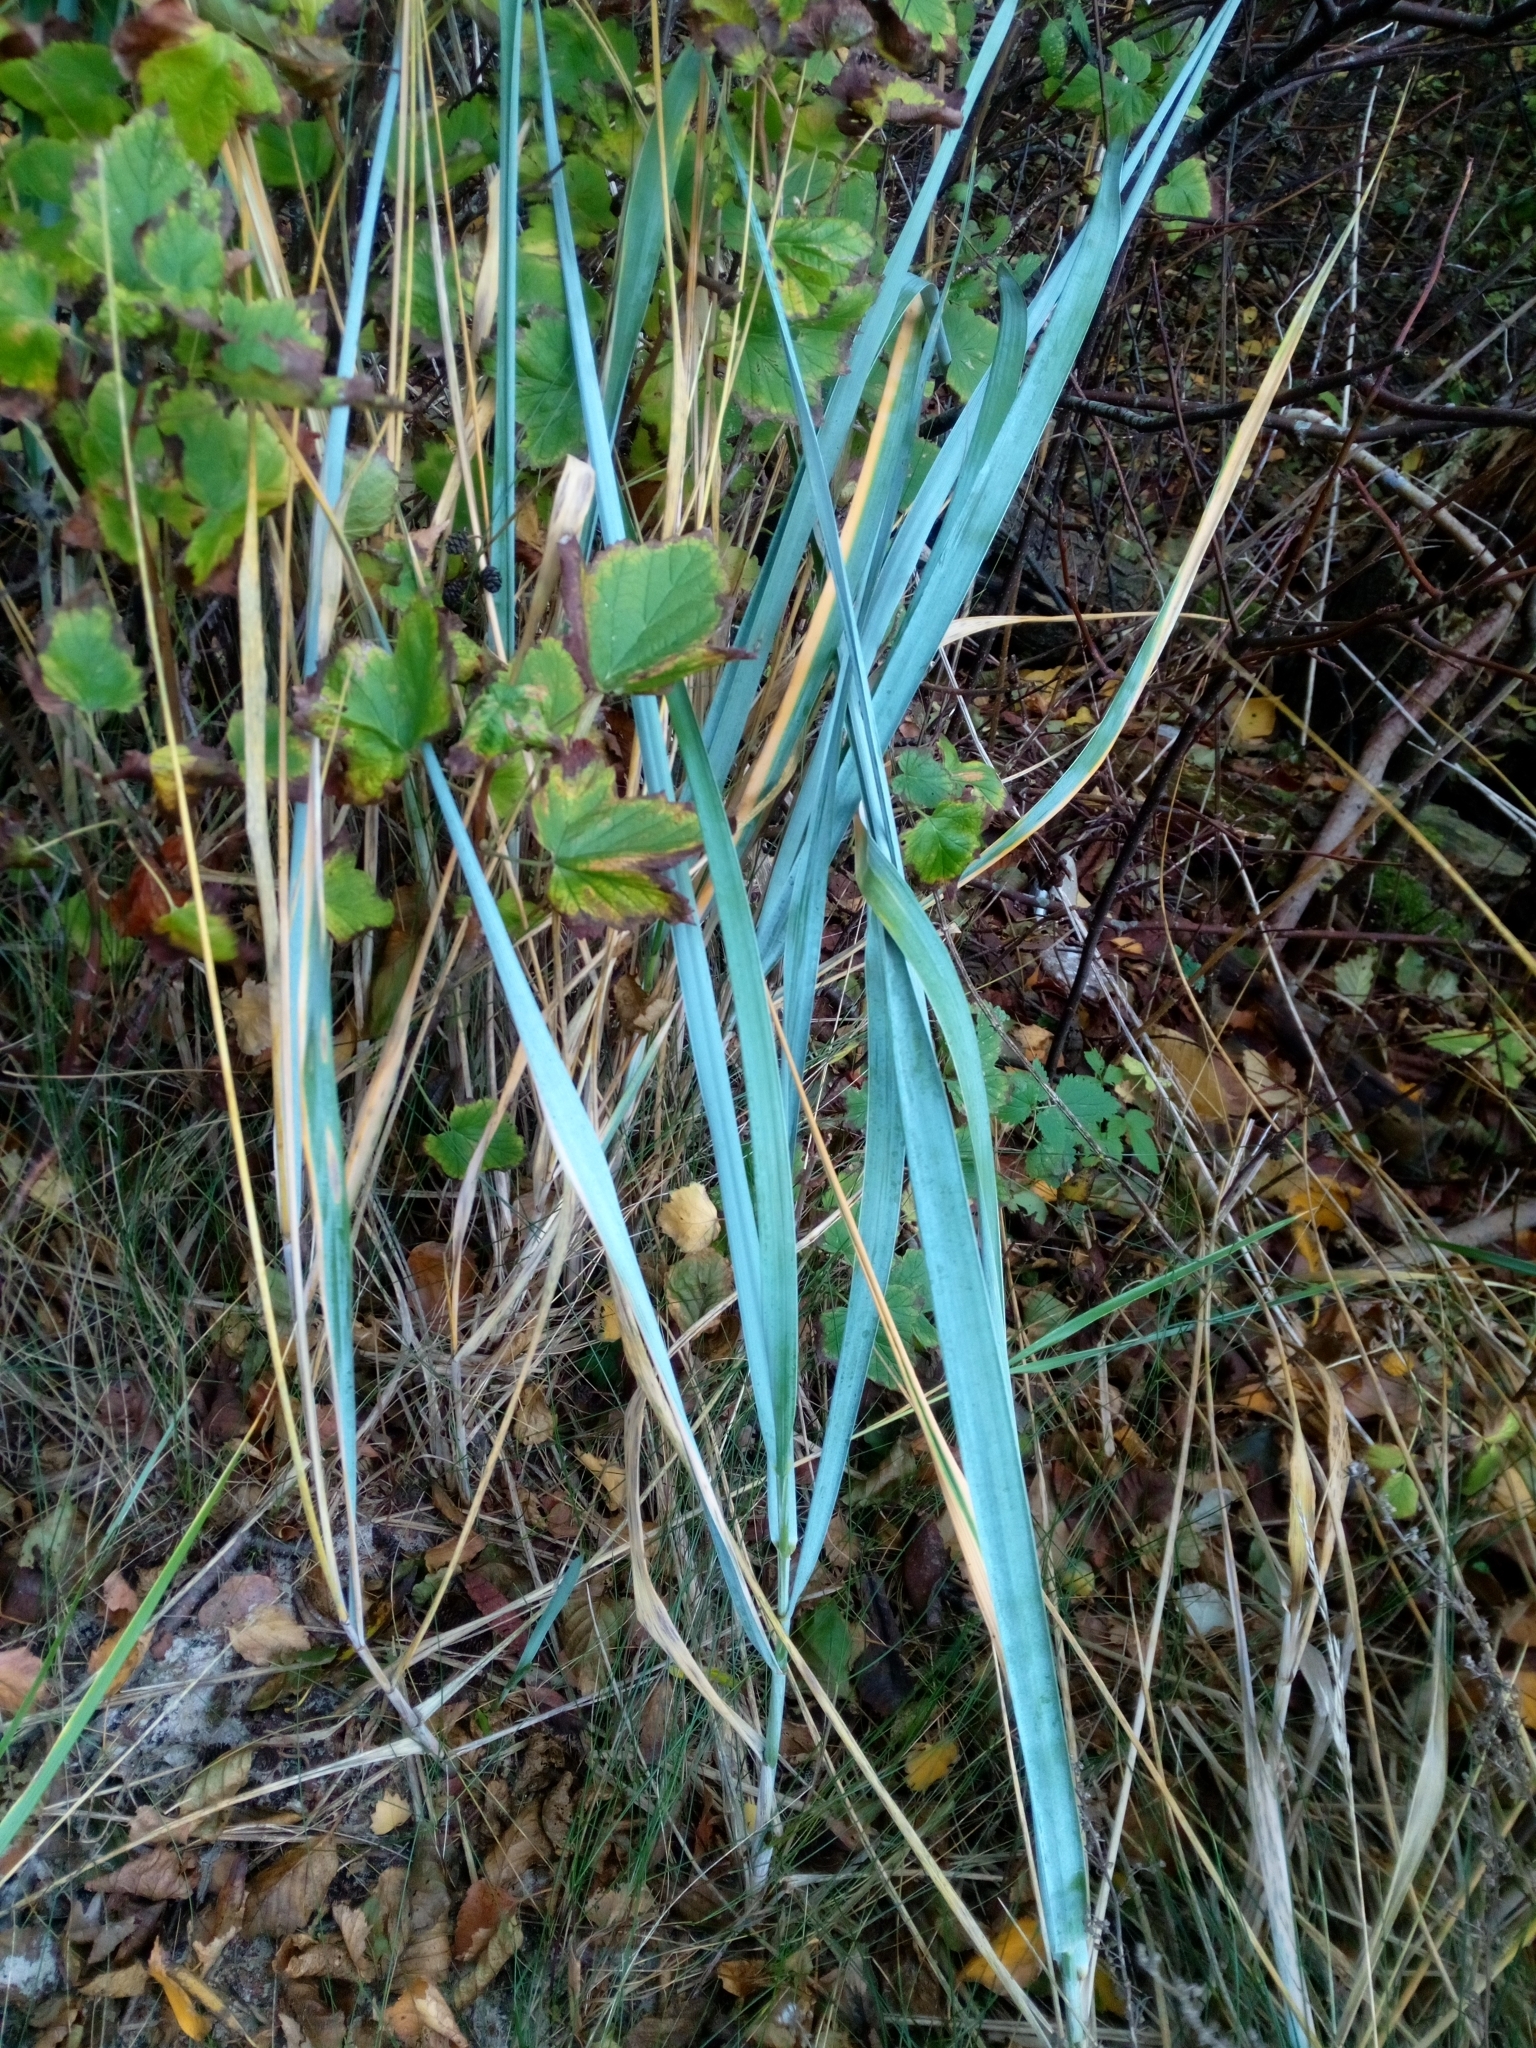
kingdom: Plantae
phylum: Tracheophyta
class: Liliopsida
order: Poales
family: Poaceae
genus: Leymus
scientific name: Leymus arenarius
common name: Lyme-grass
